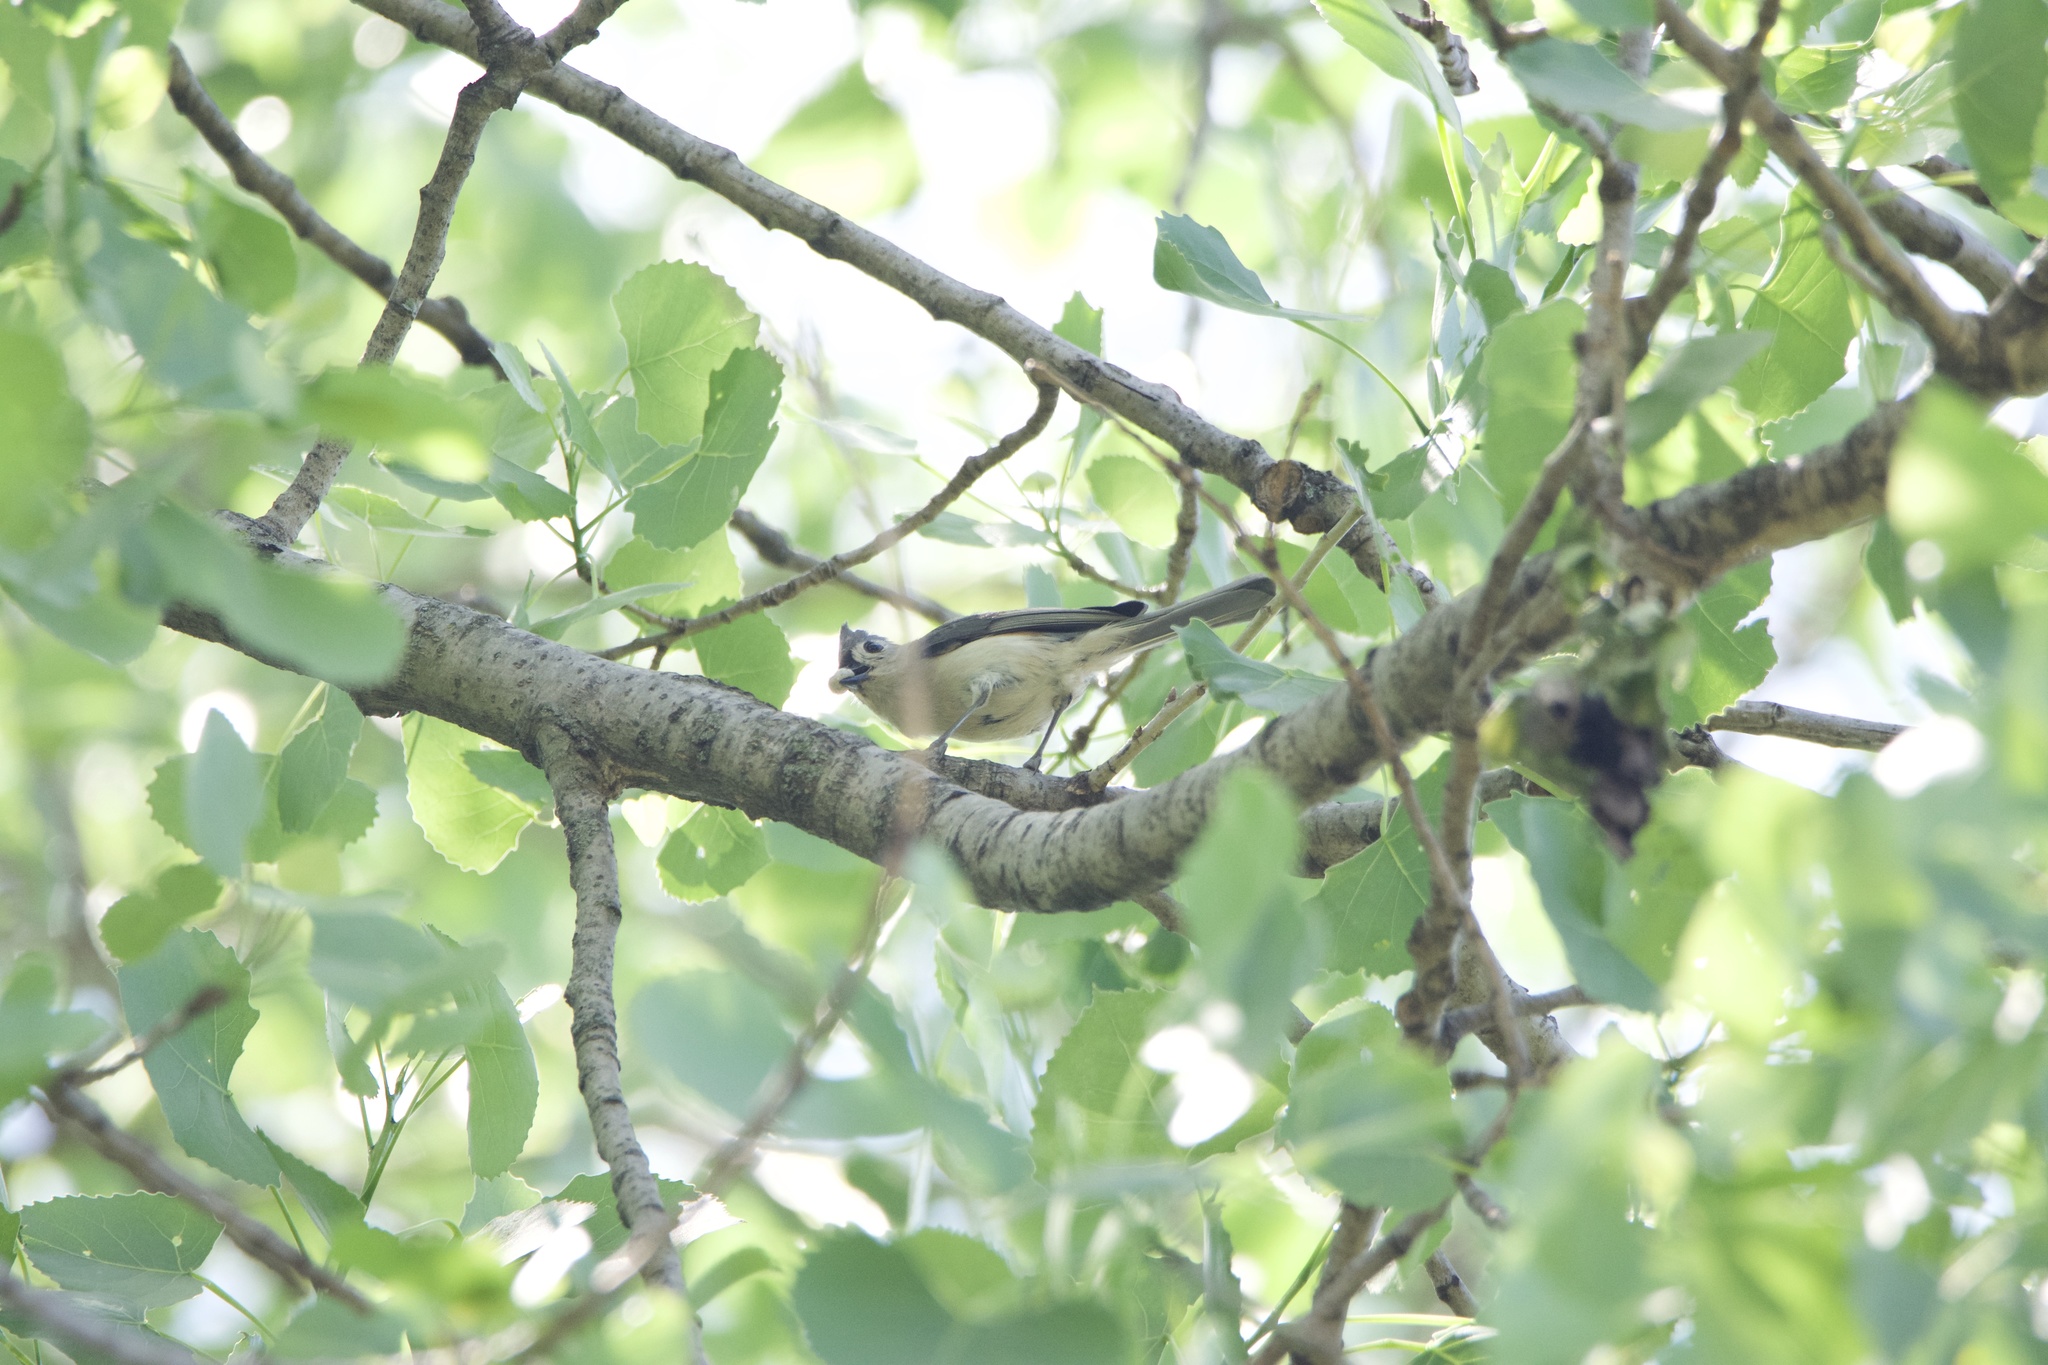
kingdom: Animalia
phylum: Chordata
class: Aves
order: Passeriformes
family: Paridae
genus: Baeolophus
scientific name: Baeolophus bicolor
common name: Tufted titmouse
